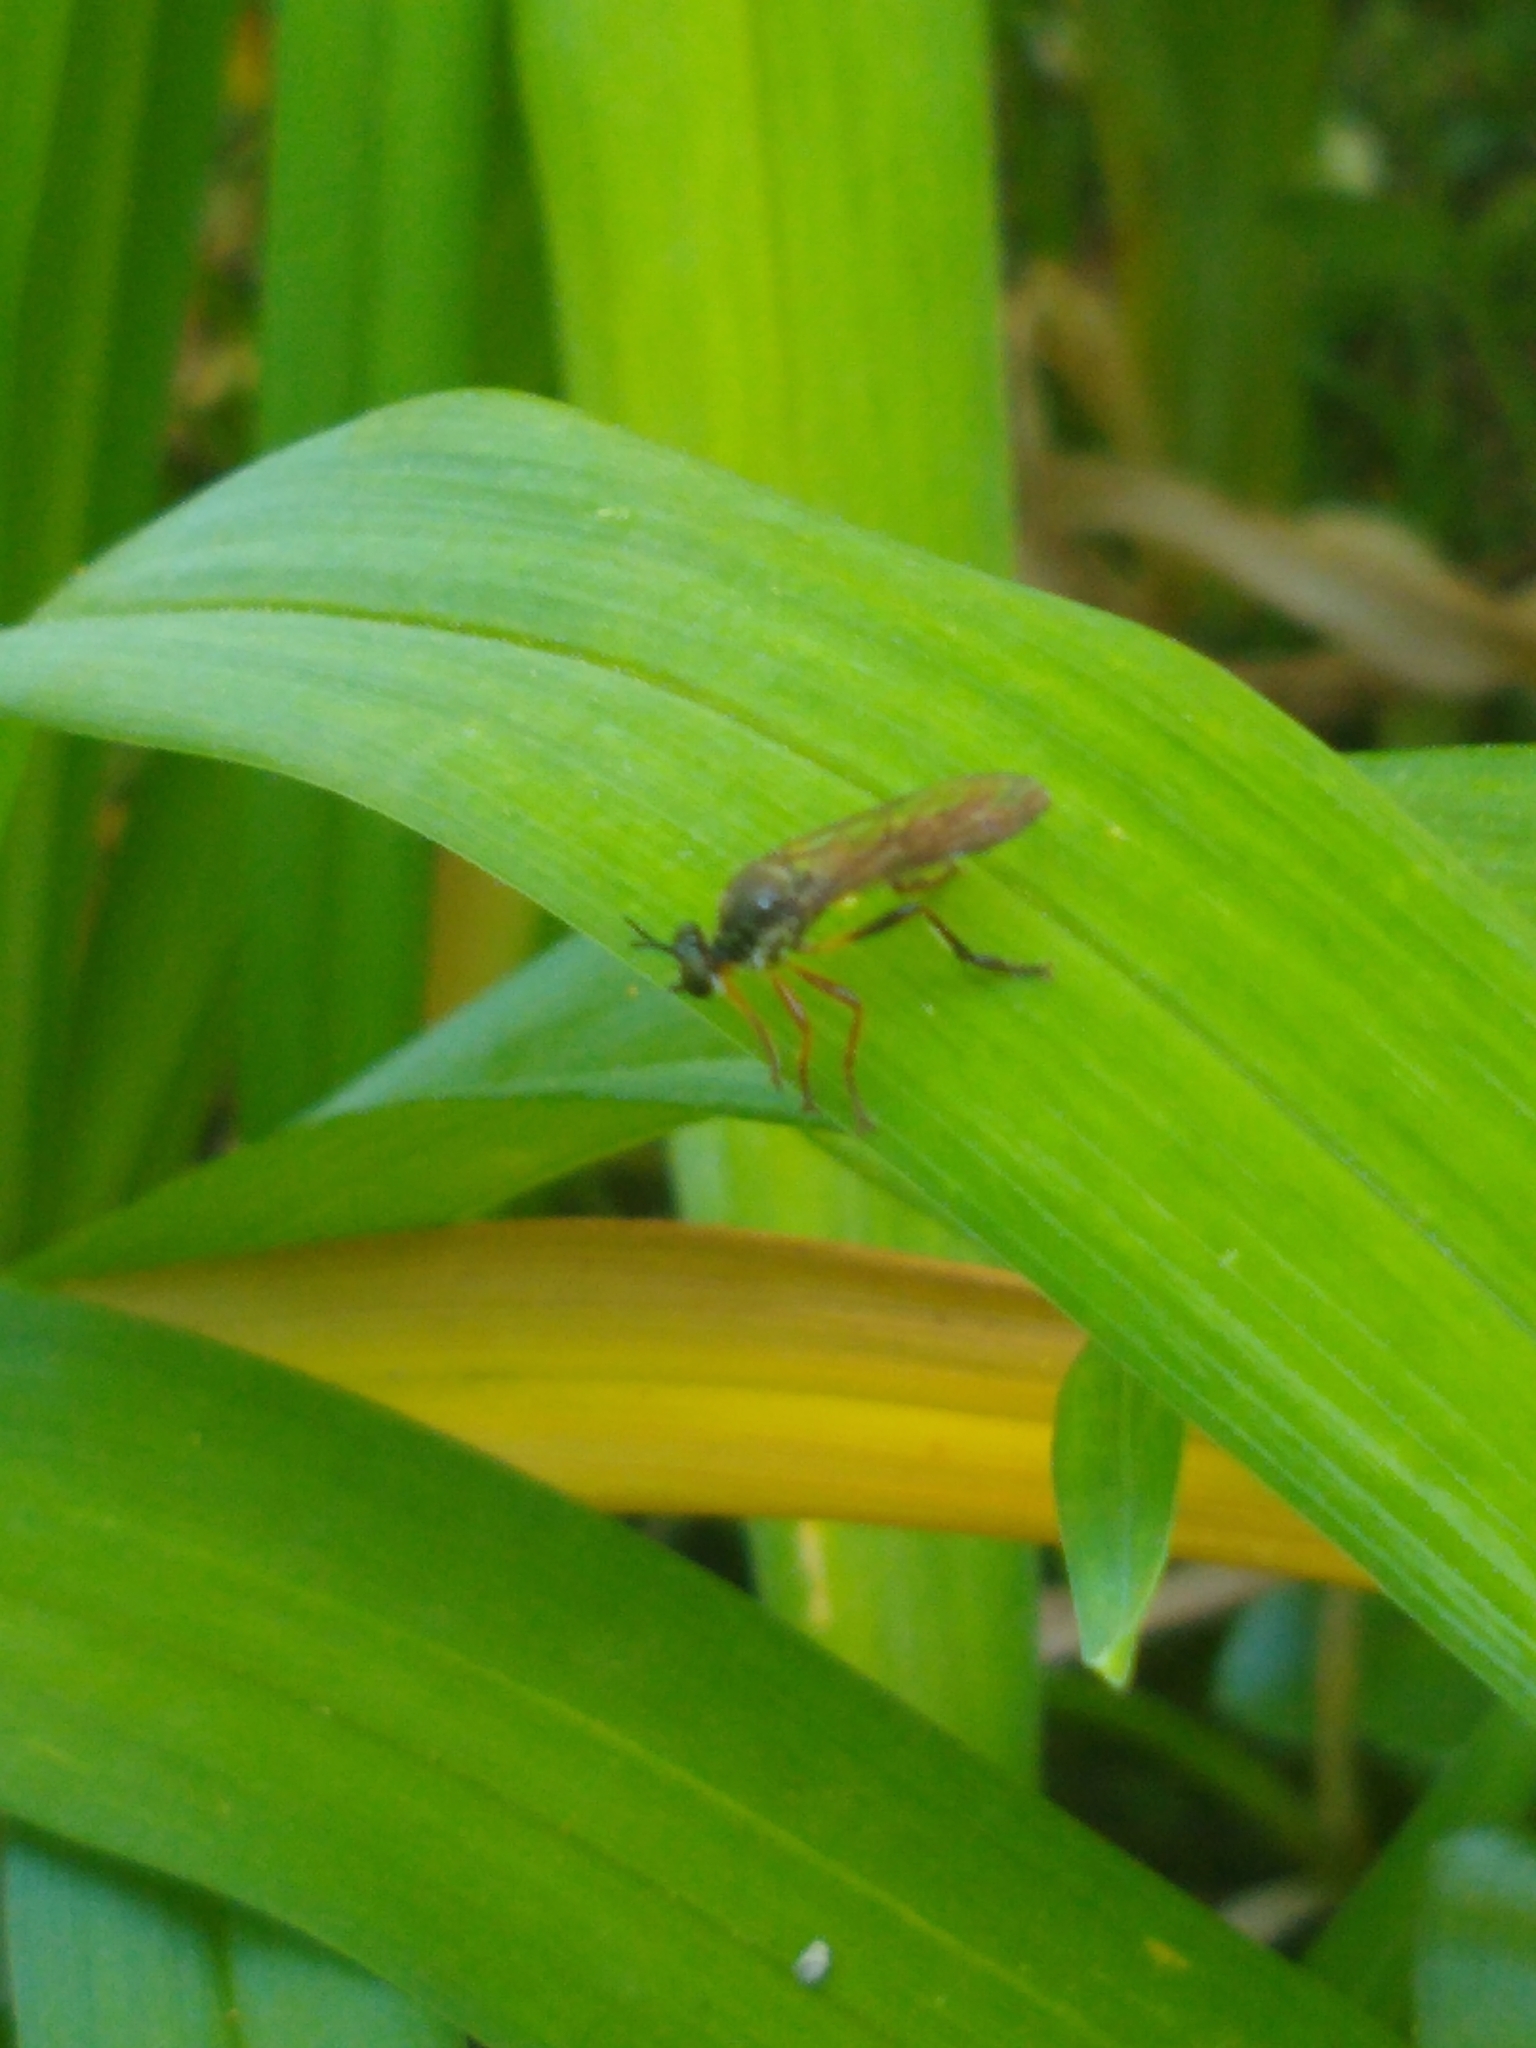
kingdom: Animalia
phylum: Arthropoda
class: Insecta
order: Diptera
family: Asilidae
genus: Dioctria
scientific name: Dioctria hyalipennis
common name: Stripe-legged robberfly
